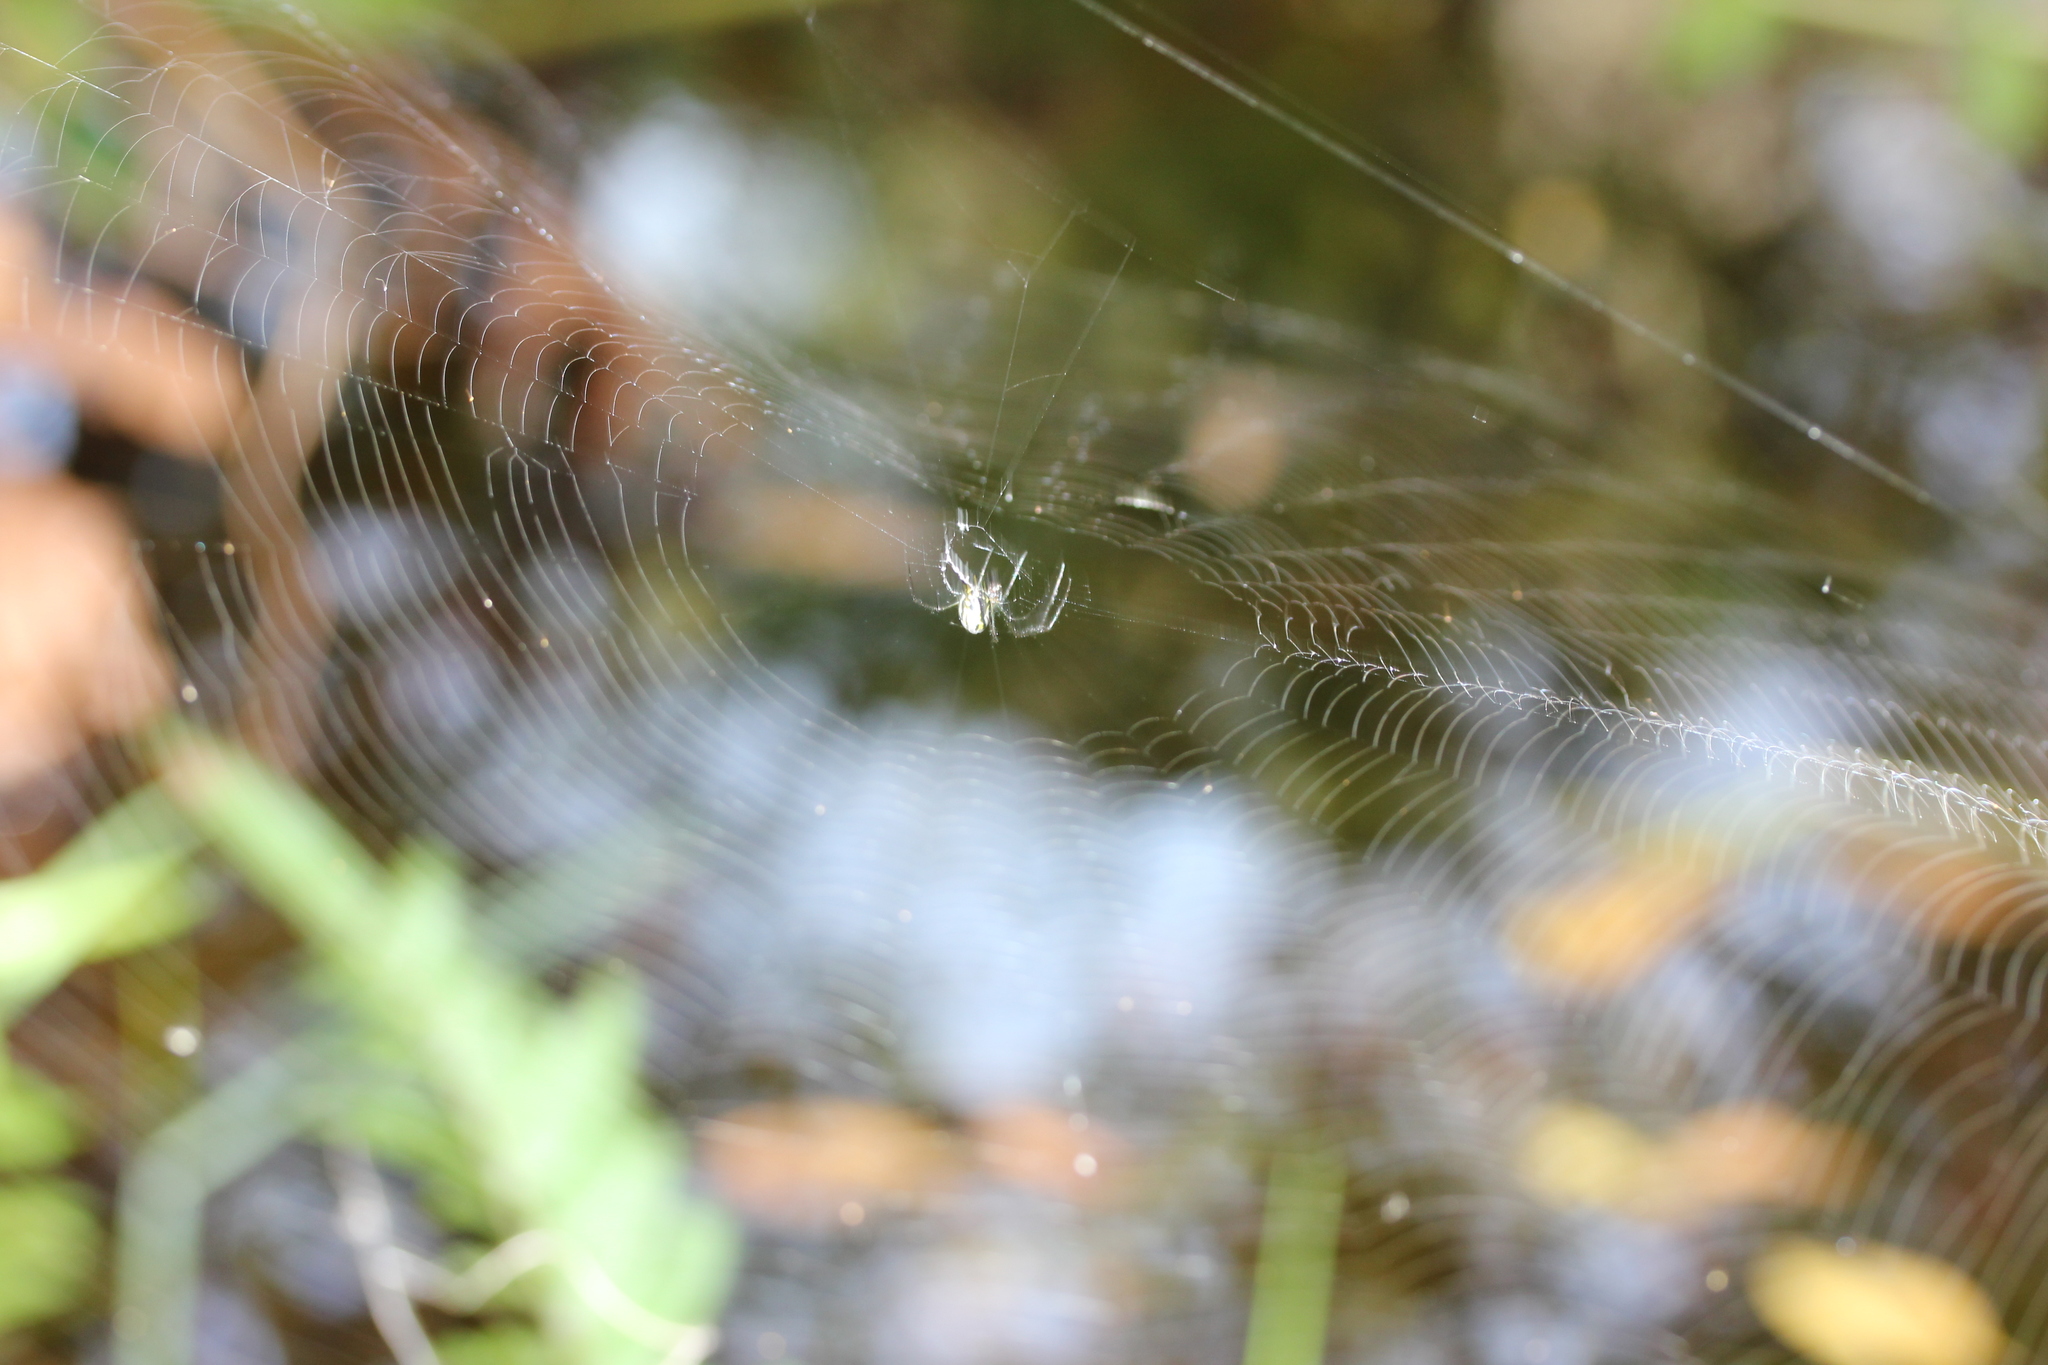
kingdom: Animalia
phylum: Arthropoda
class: Arachnida
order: Araneae
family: Tetragnathidae
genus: Leucauge
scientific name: Leucauge argyra
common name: Longjawed orb weavers
